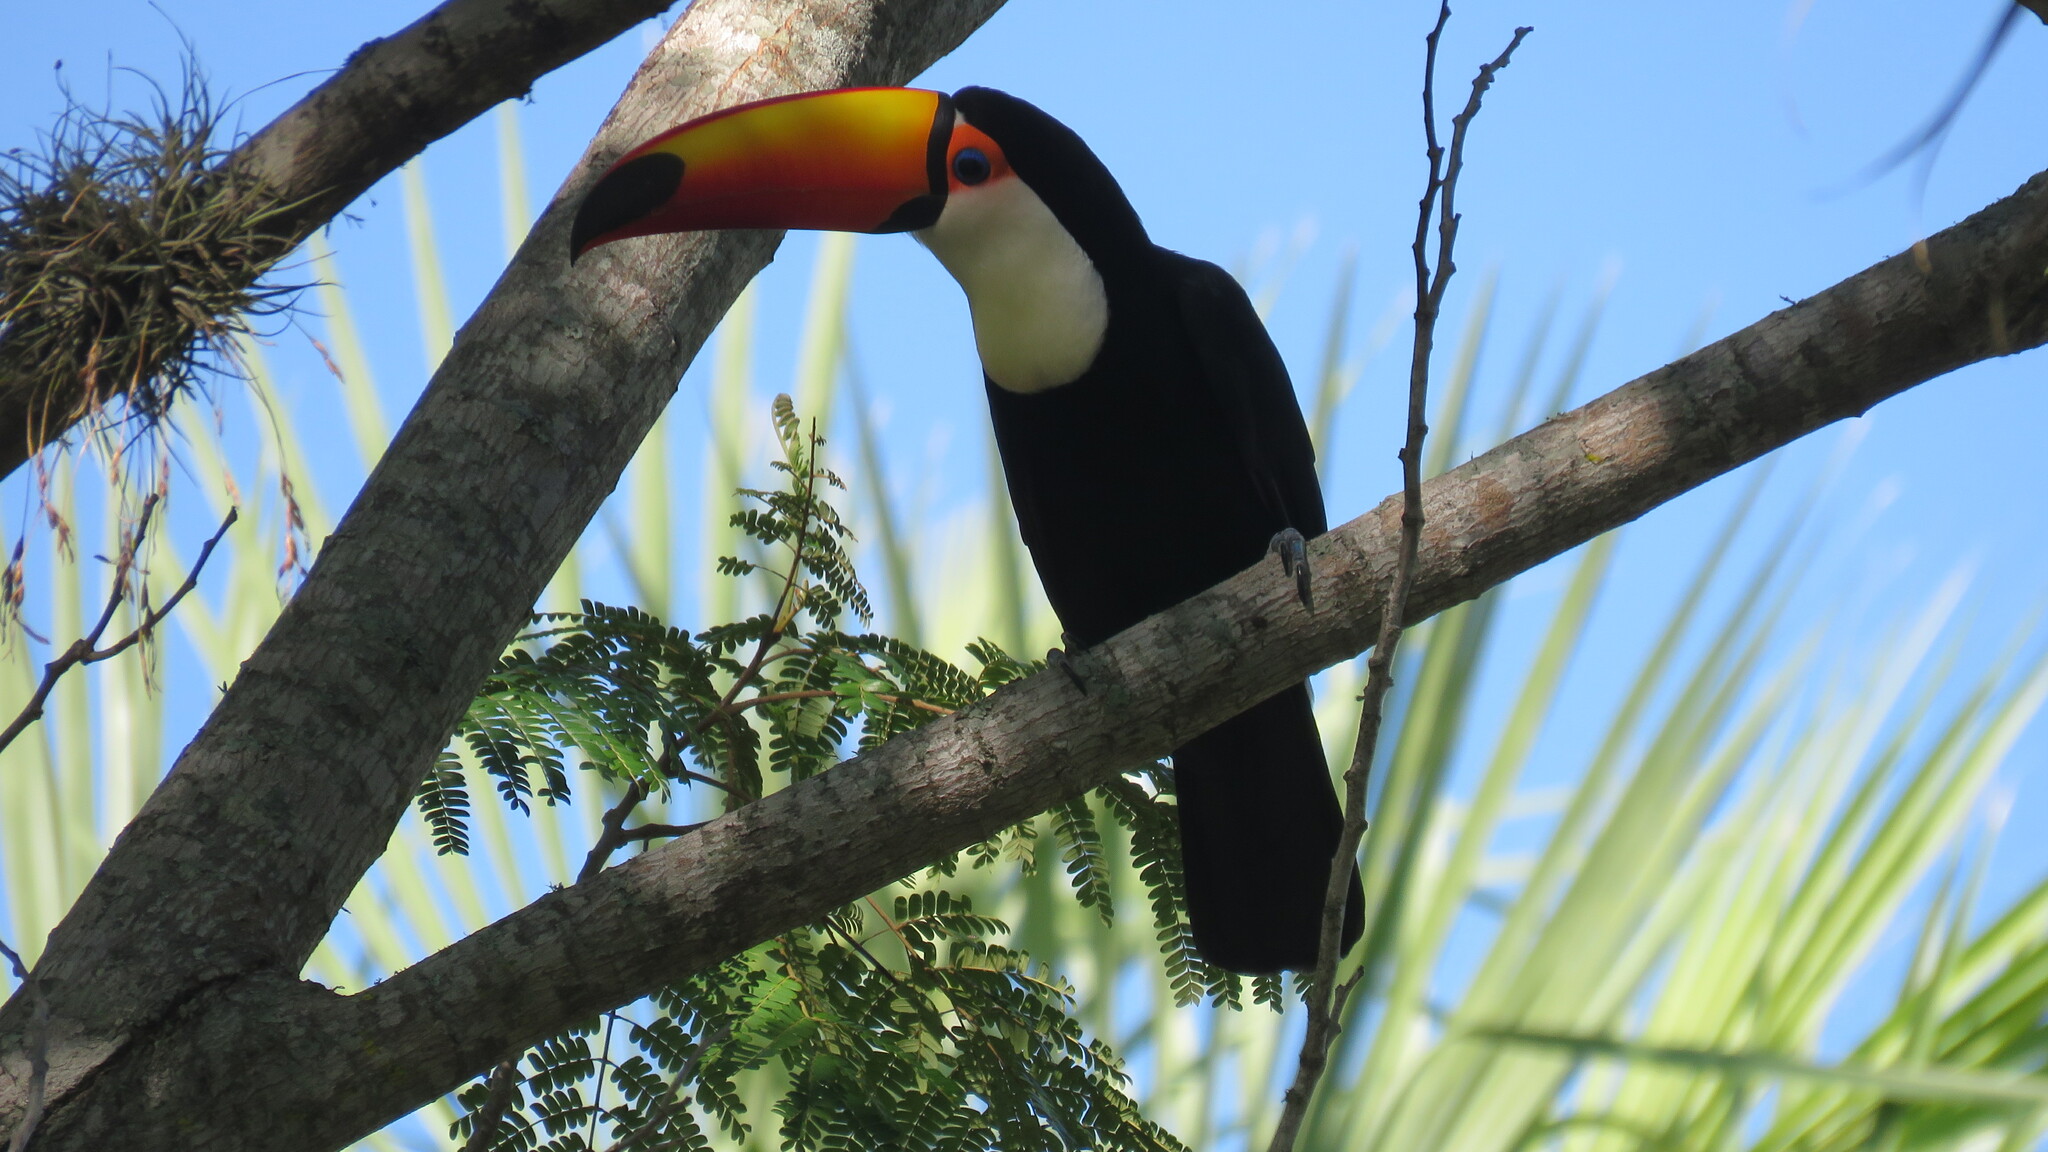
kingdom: Animalia
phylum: Chordata
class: Aves
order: Piciformes
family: Ramphastidae
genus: Ramphastos
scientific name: Ramphastos toco
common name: Toco toucan
